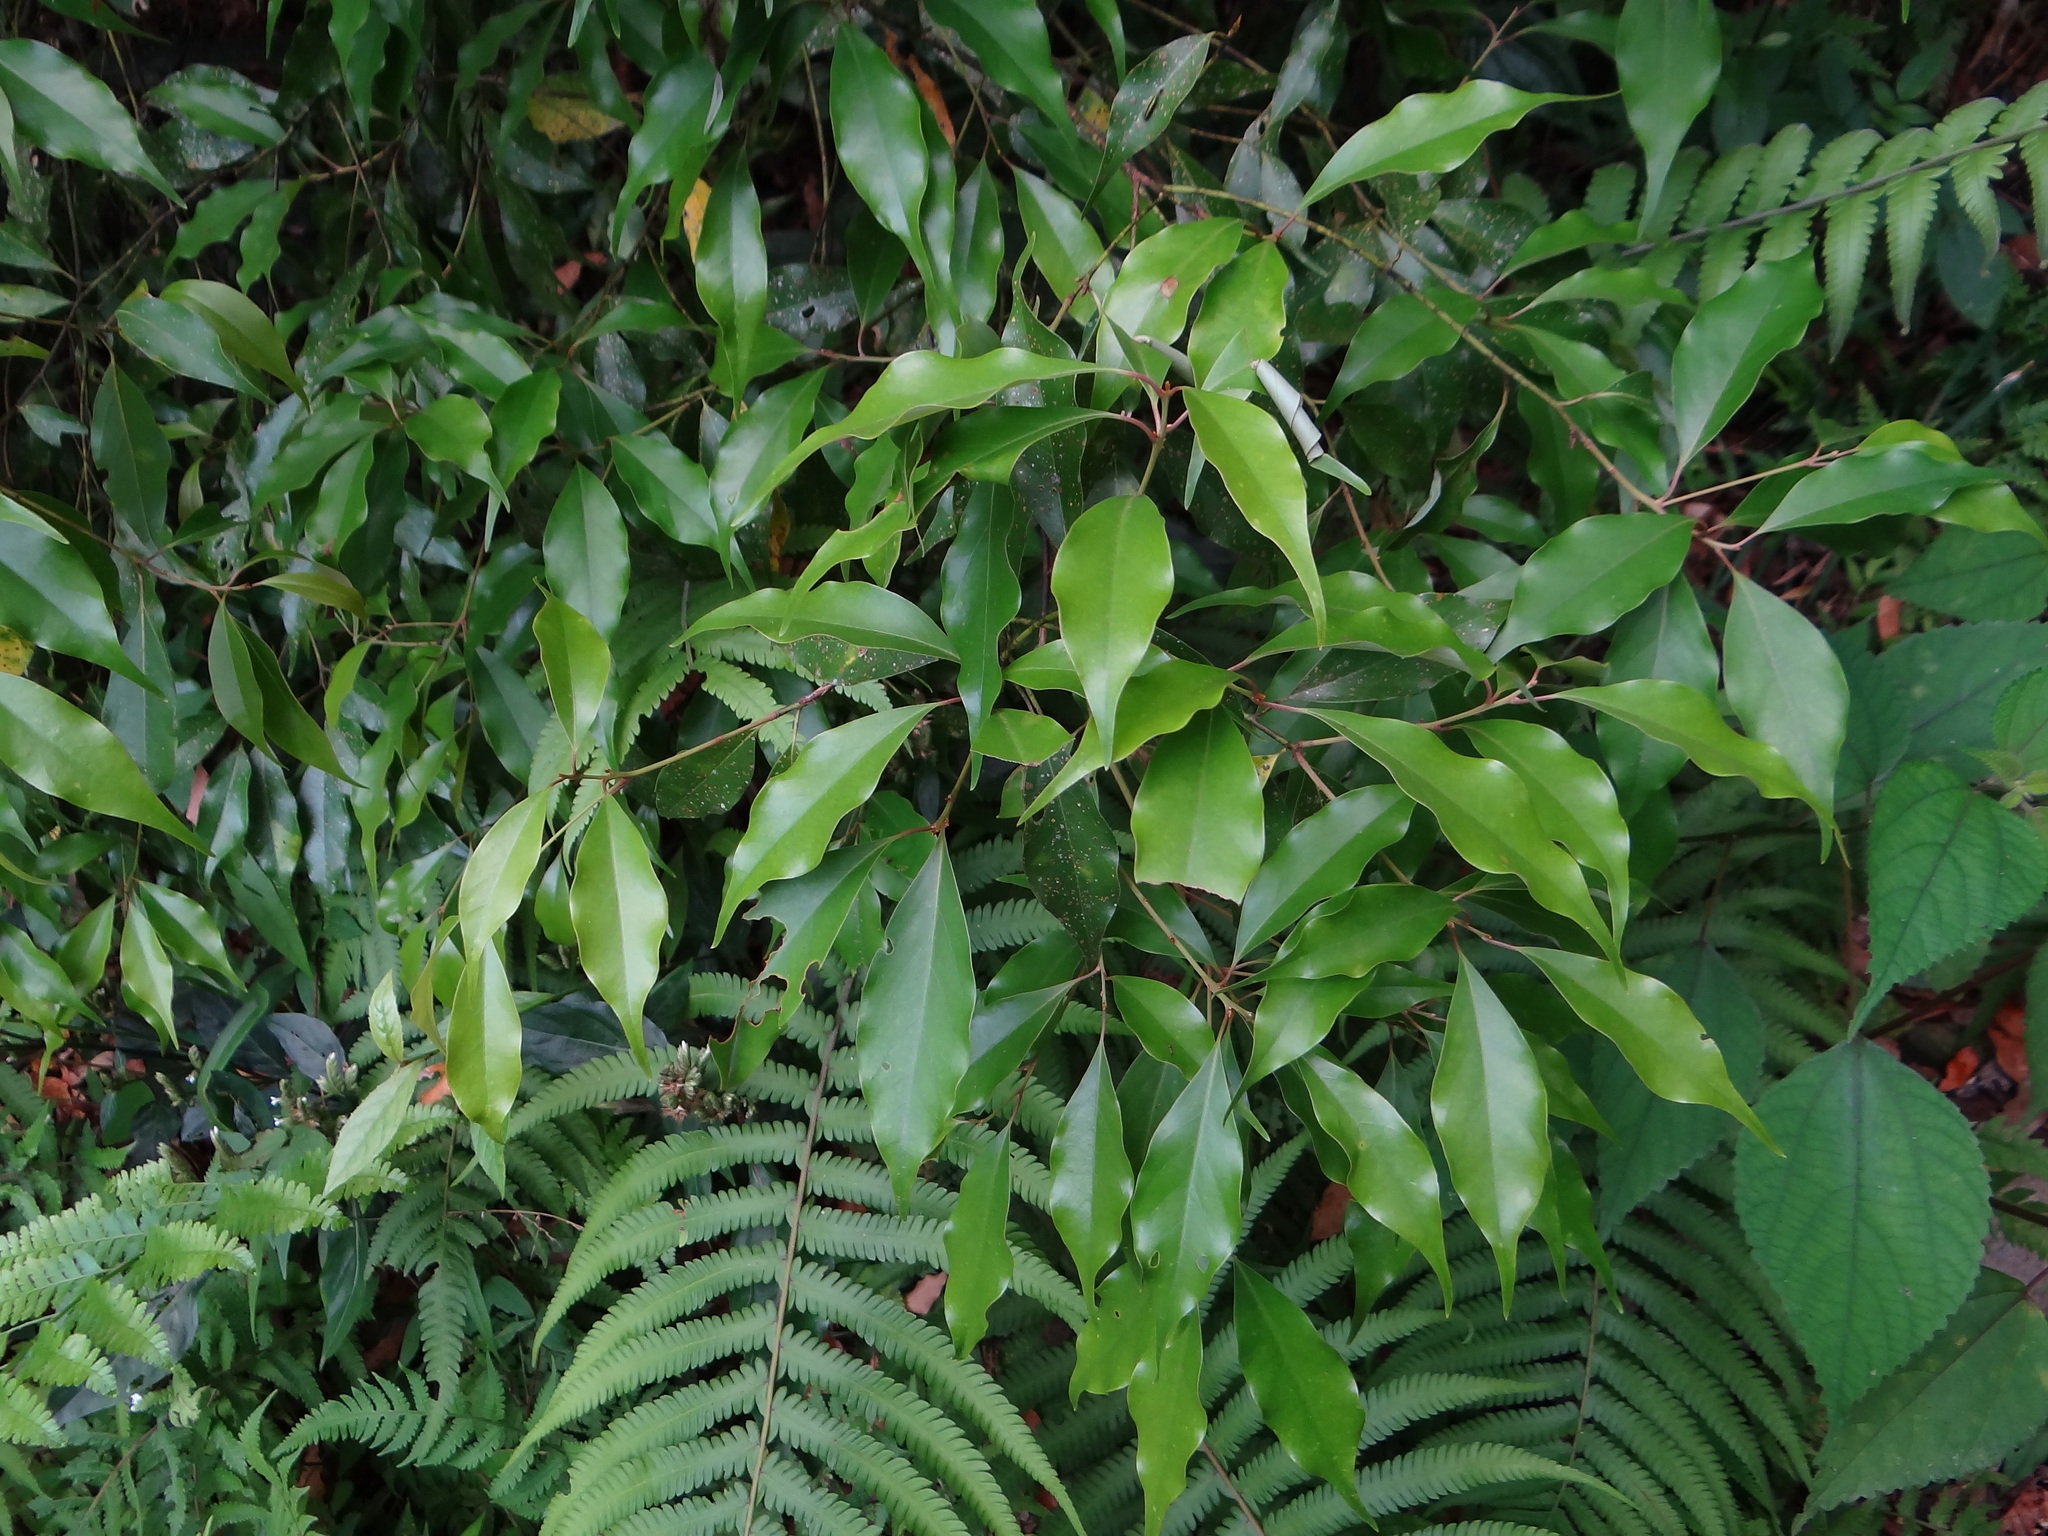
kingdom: Plantae
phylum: Tracheophyta
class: Magnoliopsida
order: Laurales
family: Lauraceae
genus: Cinnamomum
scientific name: Cinnamomum philippinense
